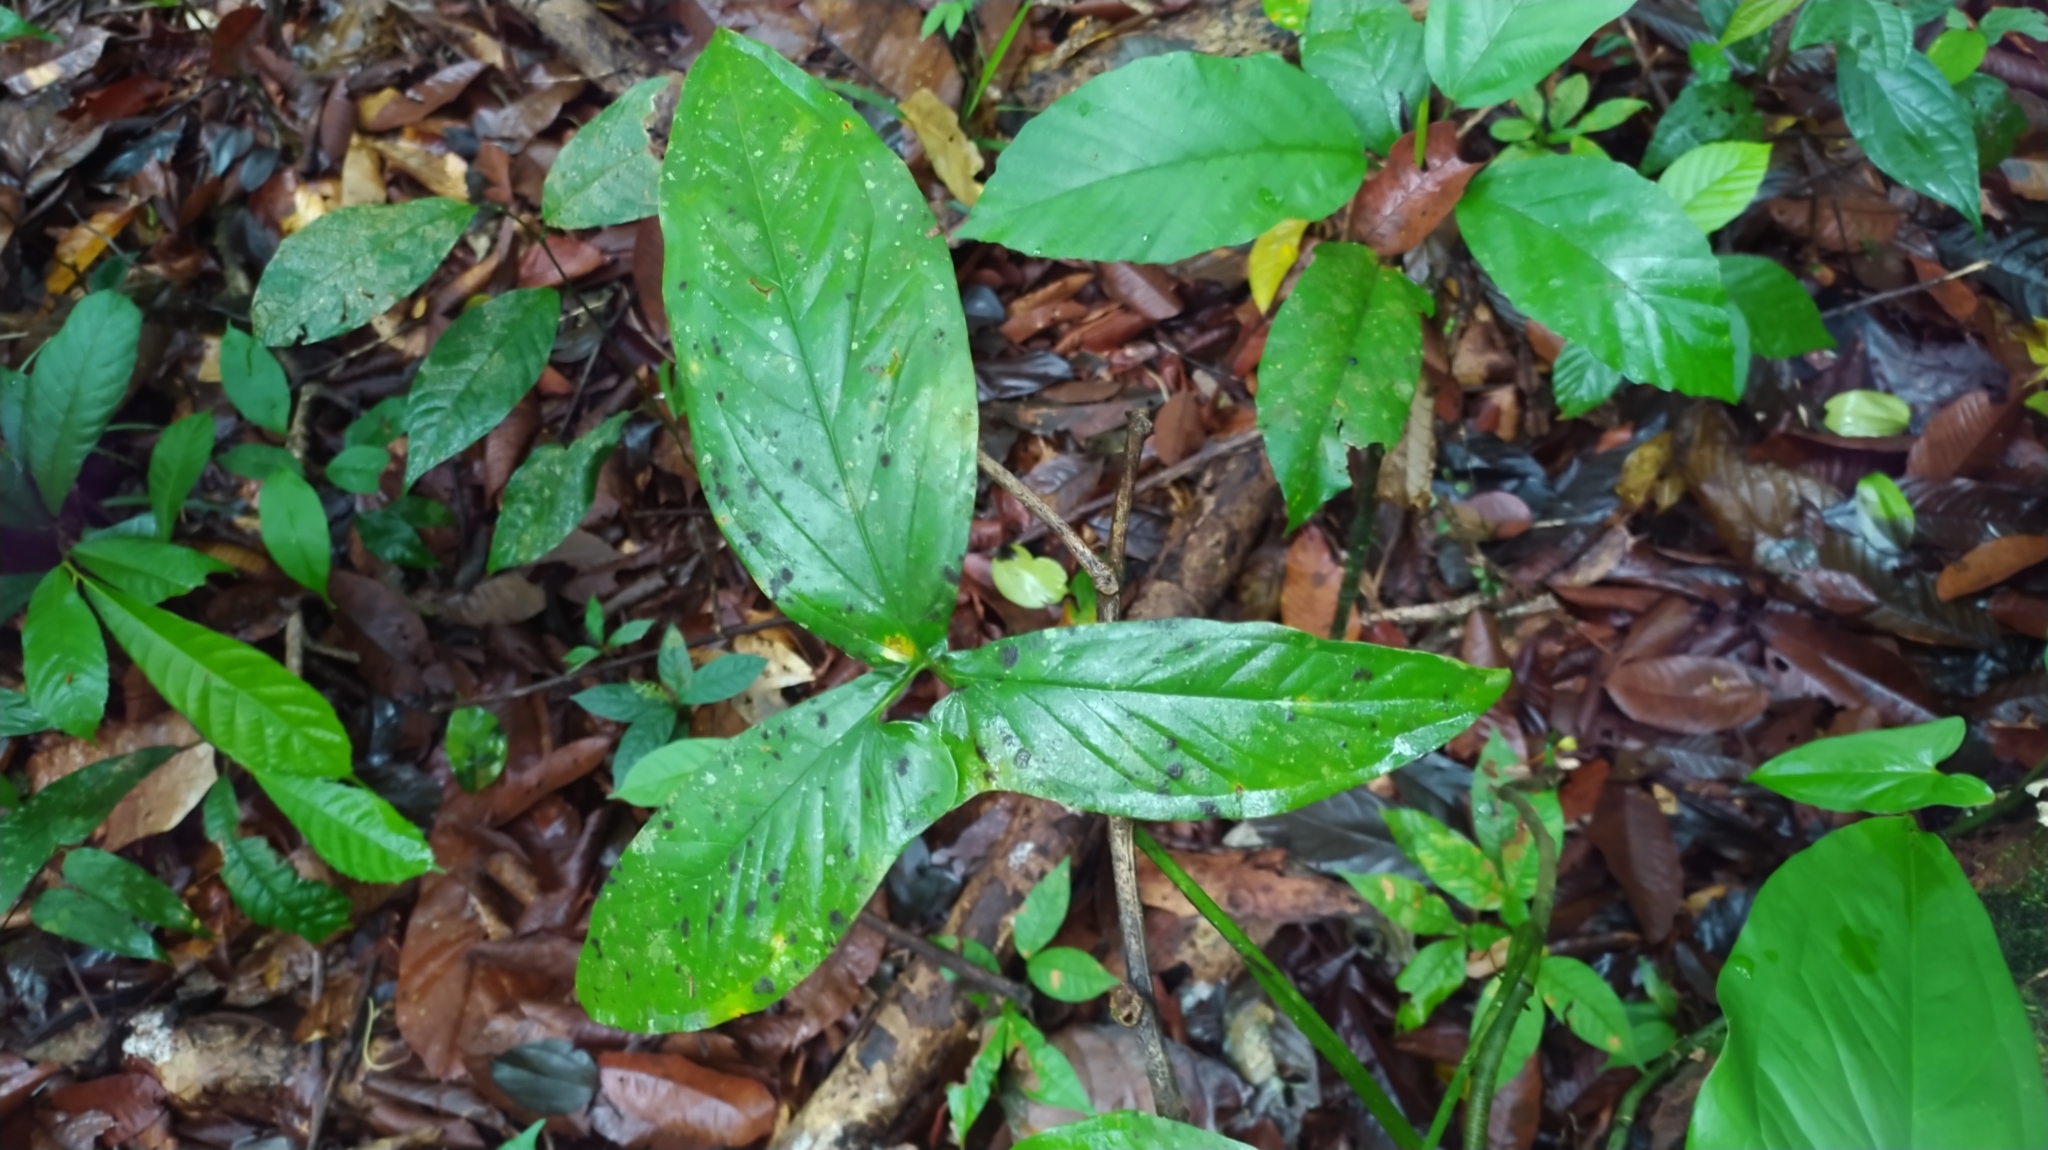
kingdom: Plantae
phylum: Tracheophyta
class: Liliopsida
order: Alismatales
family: Araceae
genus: Syngonium
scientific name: Syngonium podophyllum
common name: American evergreen
